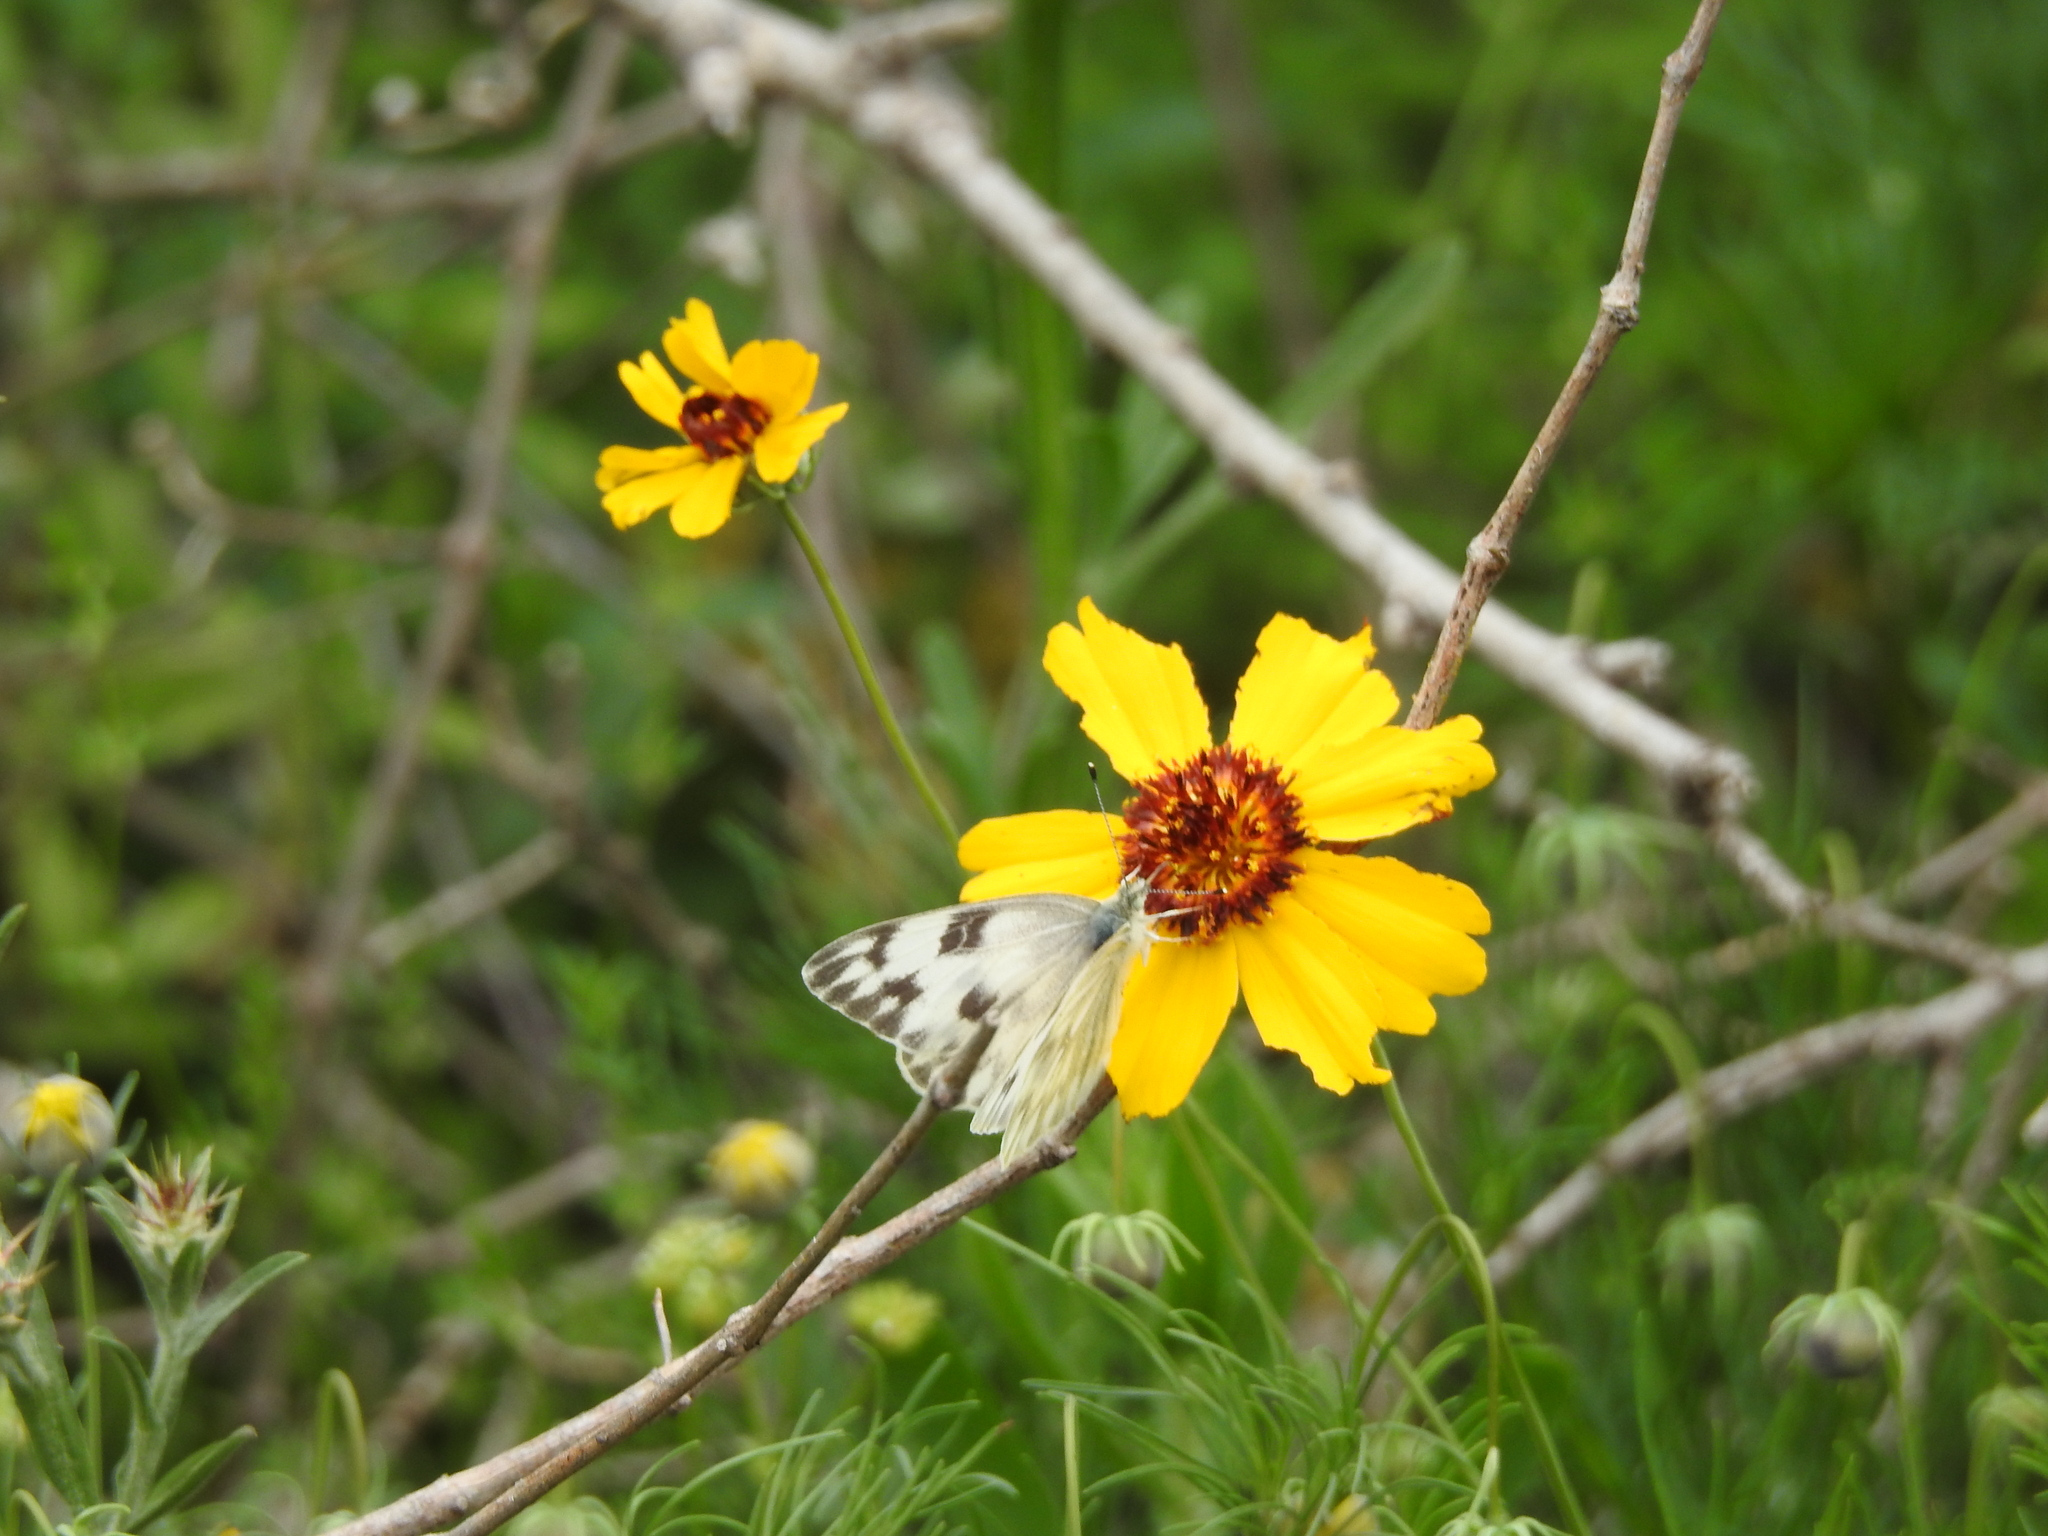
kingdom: Animalia
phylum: Arthropoda
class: Insecta
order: Lepidoptera
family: Pieridae
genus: Pontia
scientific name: Pontia protodice
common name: Checkered white
